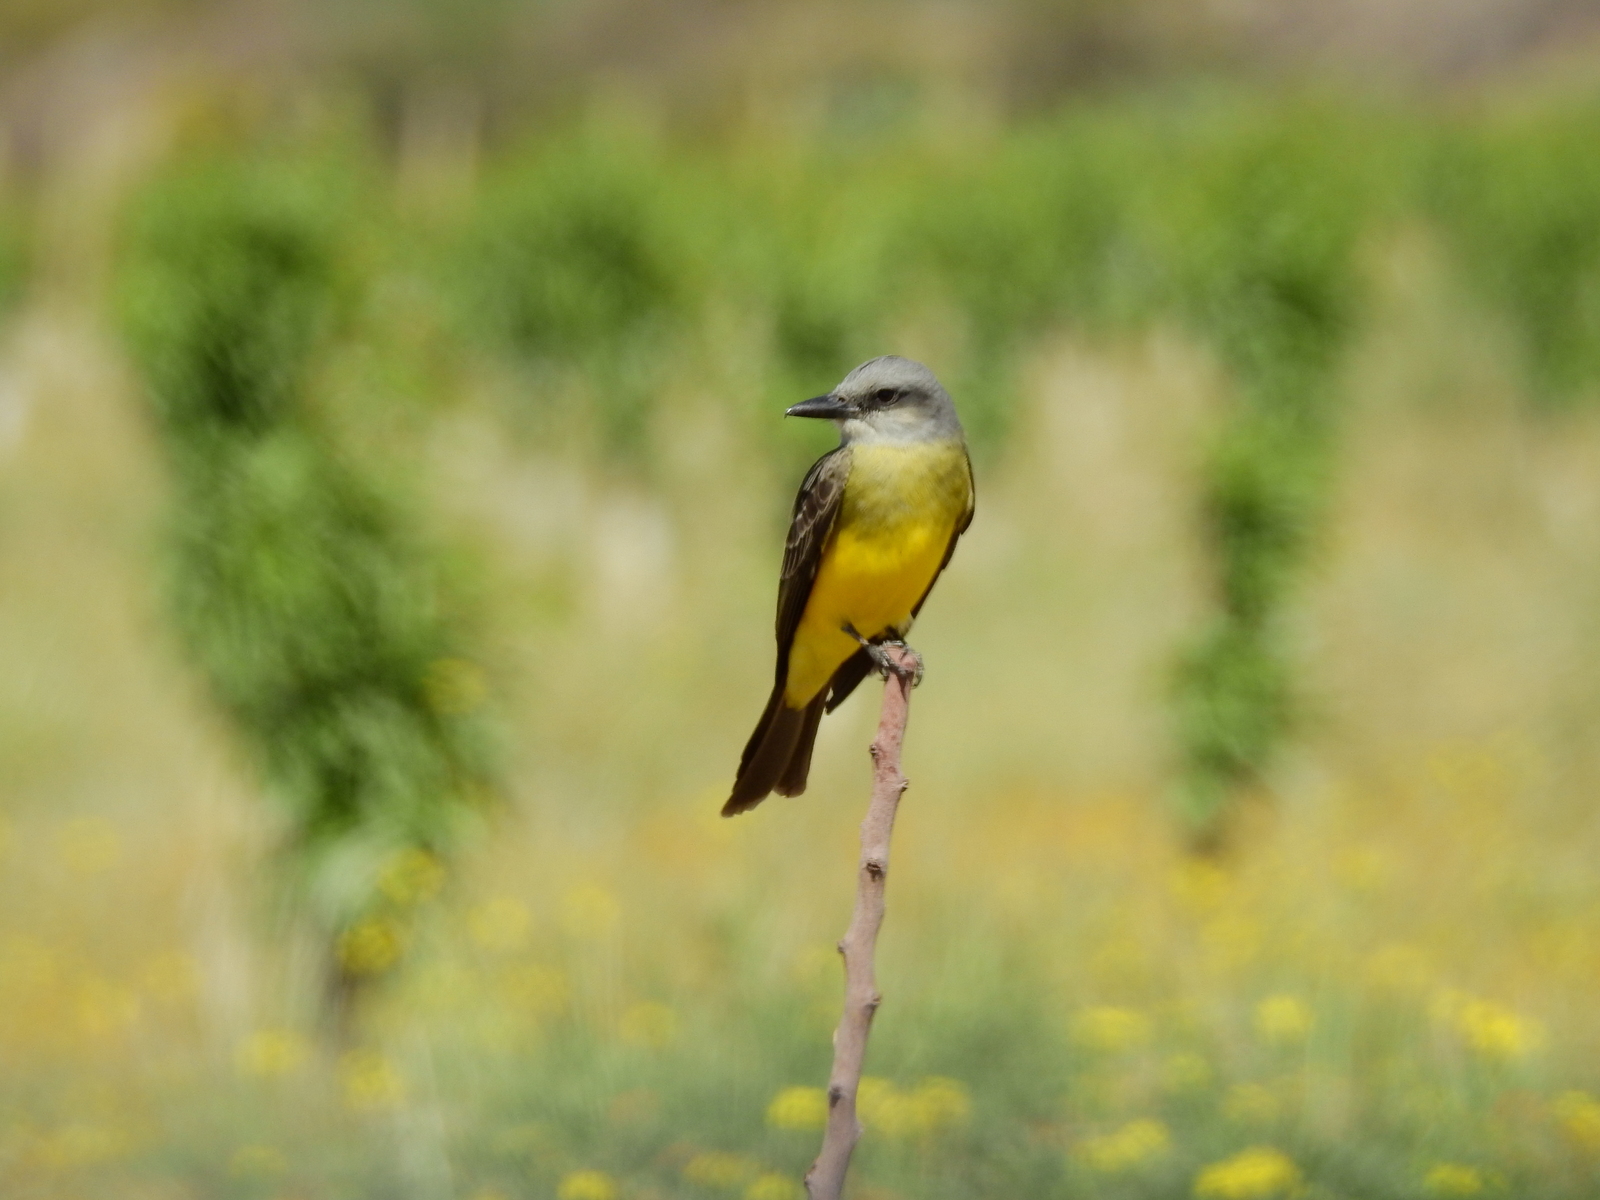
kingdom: Animalia
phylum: Chordata
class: Aves
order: Passeriformes
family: Tyrannidae
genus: Tyrannus
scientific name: Tyrannus melancholicus
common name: Tropical kingbird
